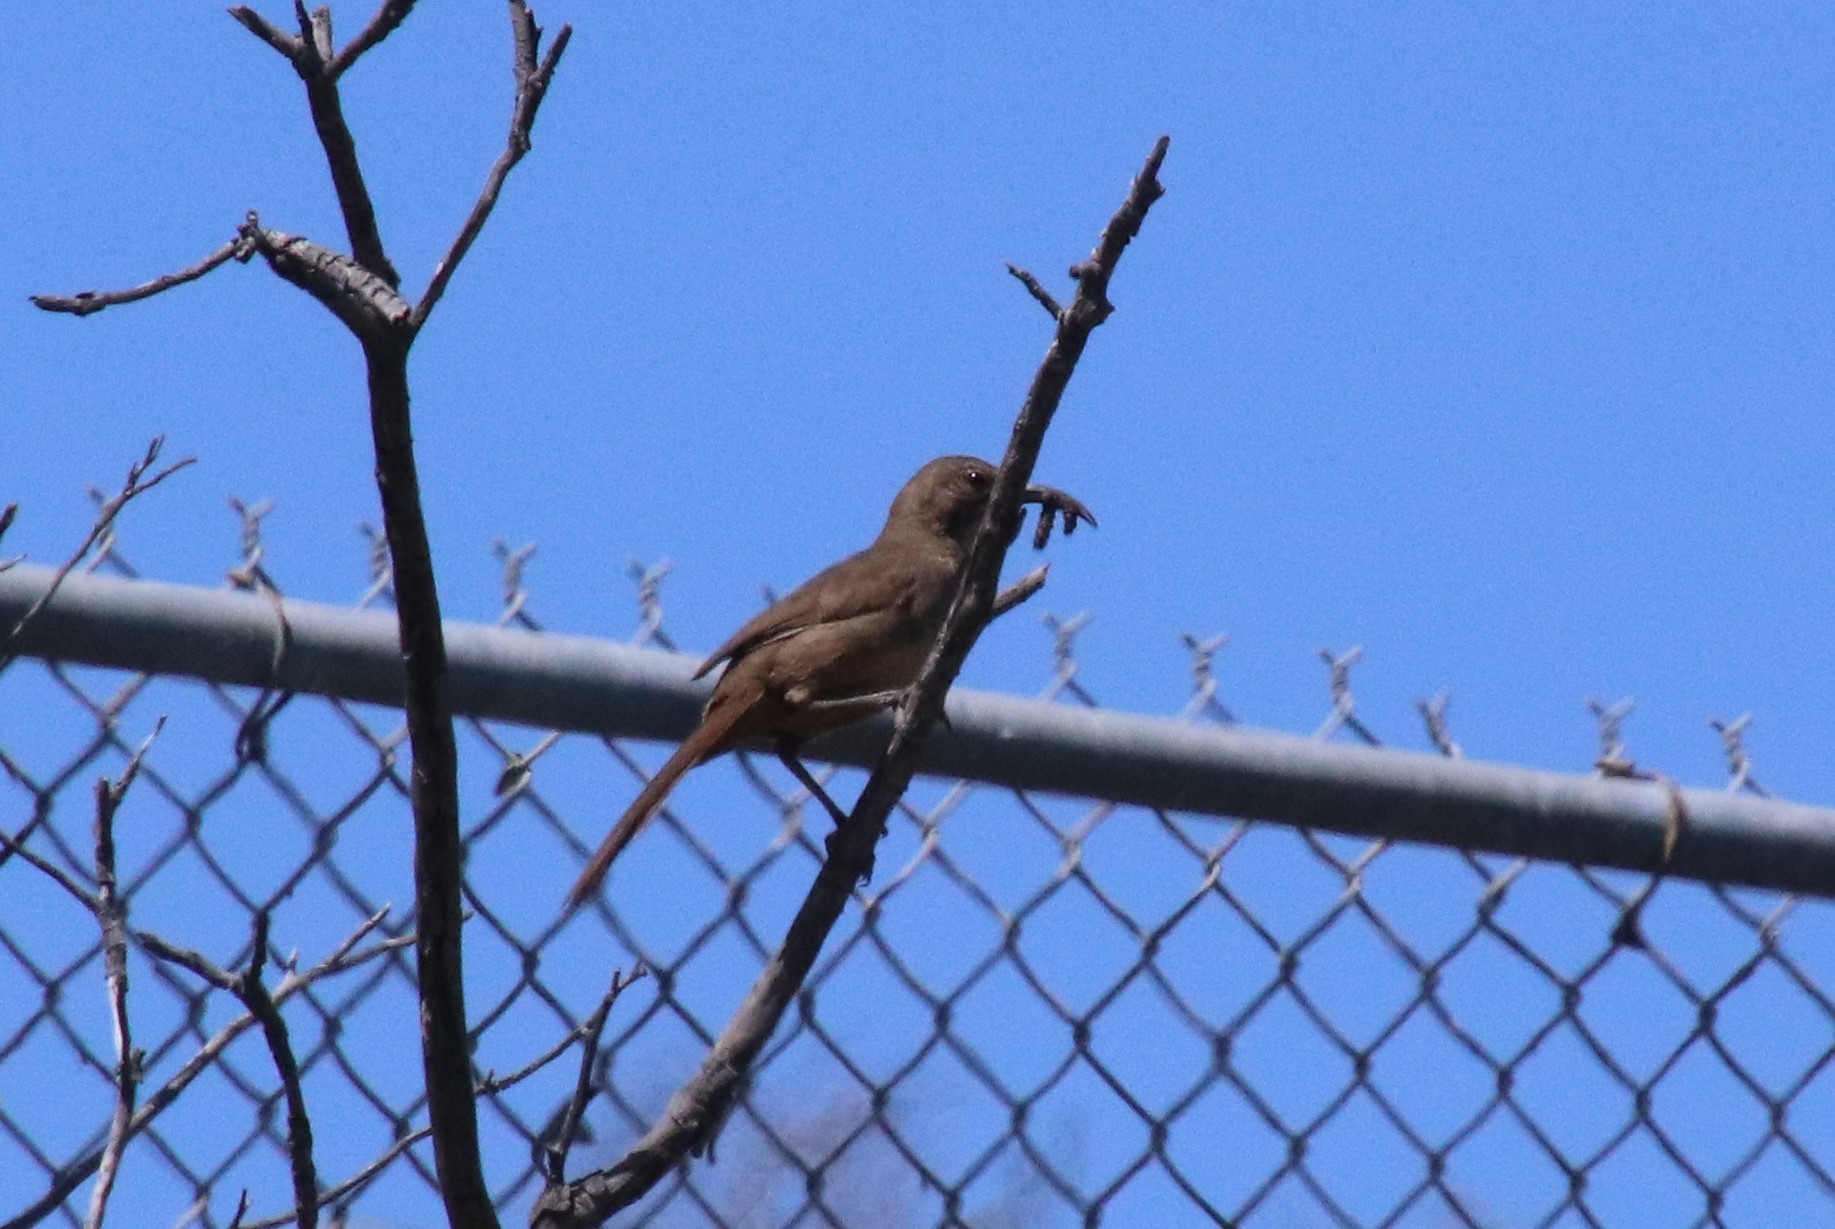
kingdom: Animalia
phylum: Chordata
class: Aves
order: Passeriformes
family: Mimidae
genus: Toxostoma
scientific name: Toxostoma redivivum
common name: California thrasher
